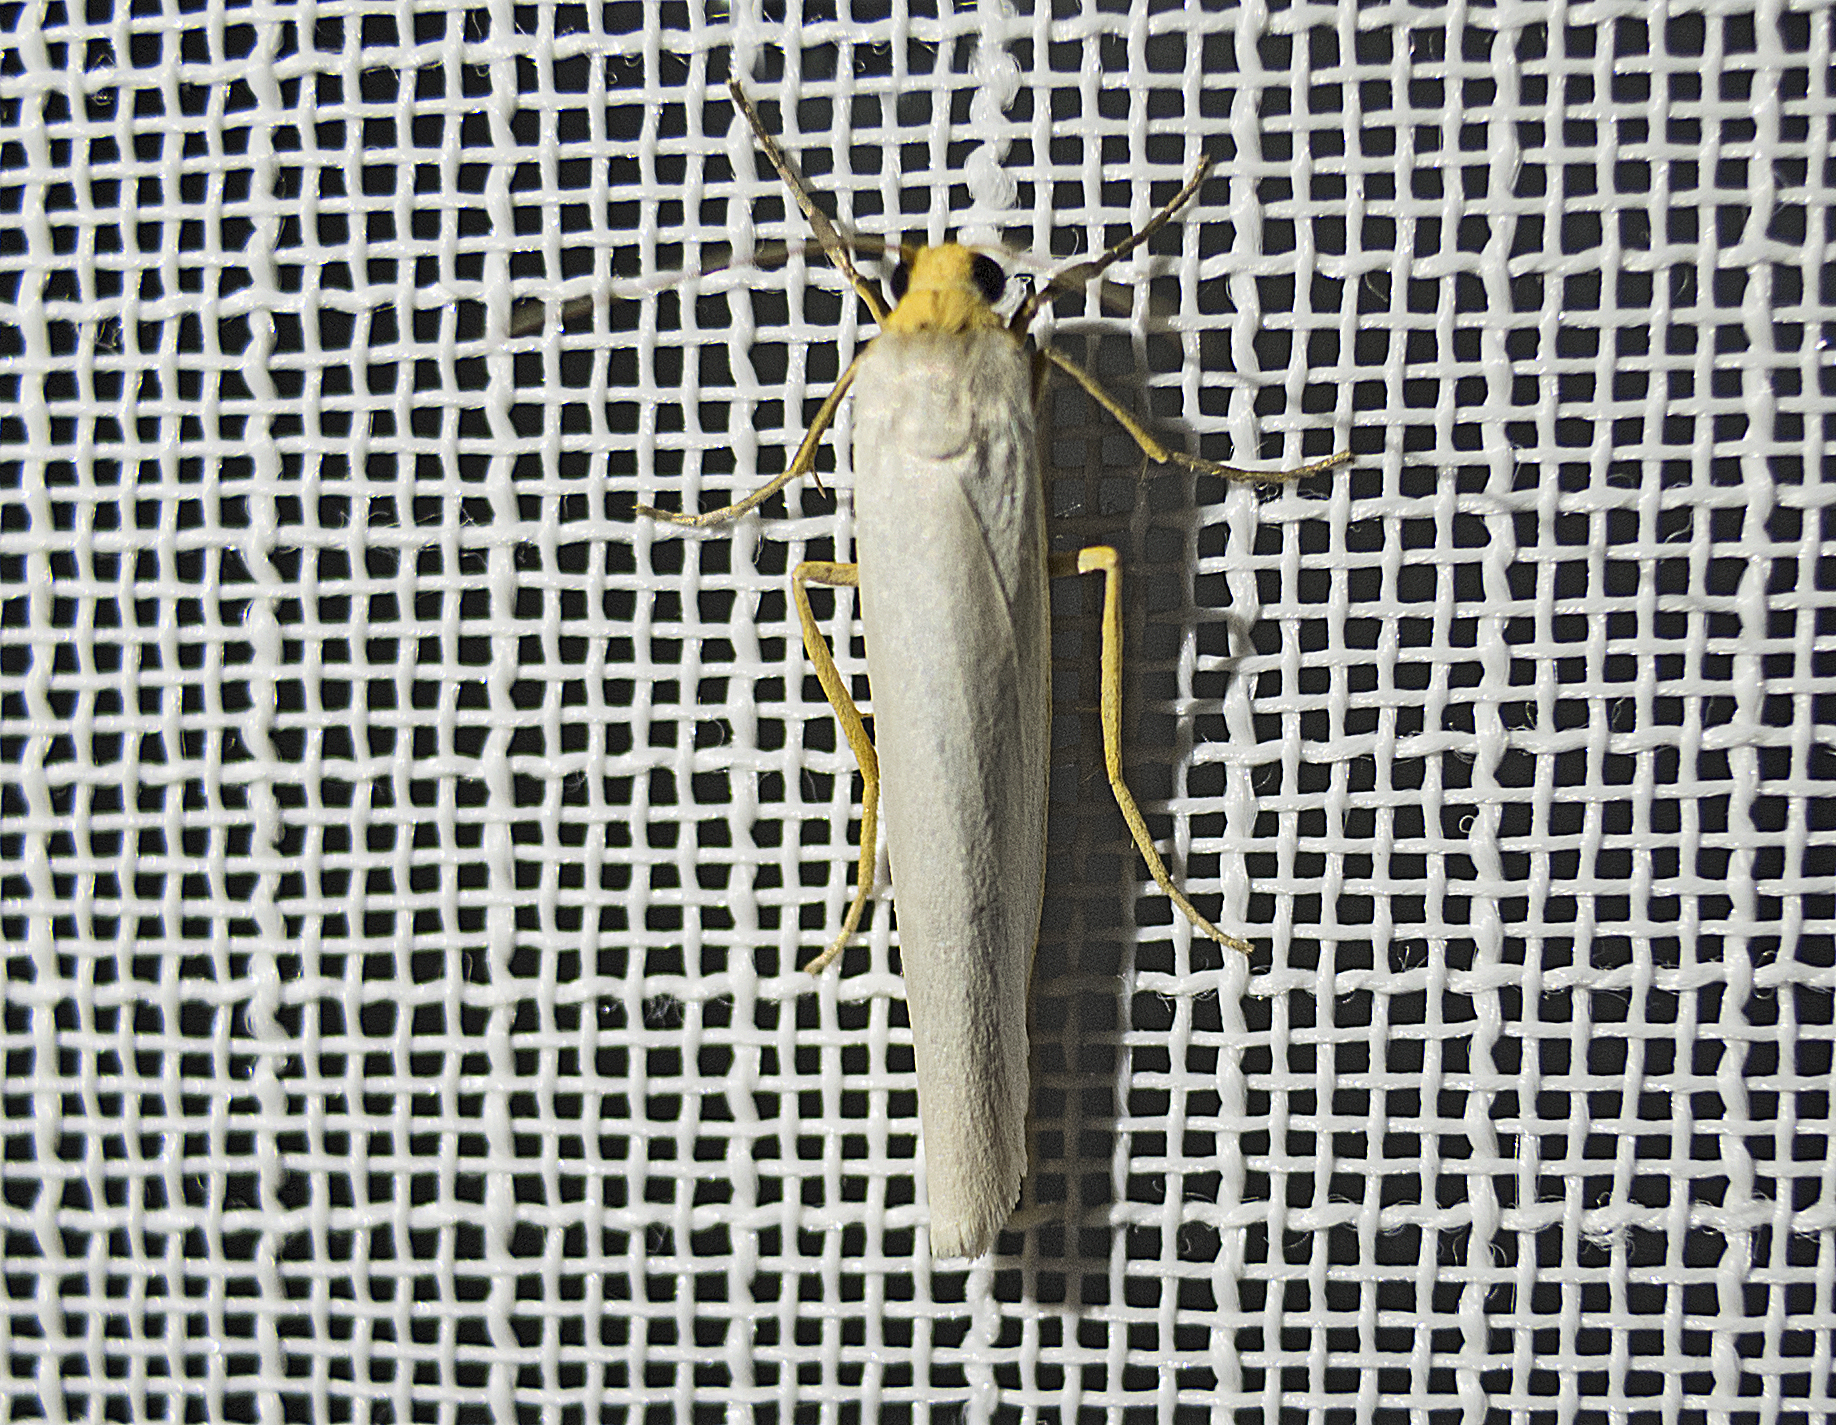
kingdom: Animalia
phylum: Arthropoda
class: Insecta
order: Lepidoptera
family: Erebidae
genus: Eilema
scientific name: Eilema caniola
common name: Hoary footman
